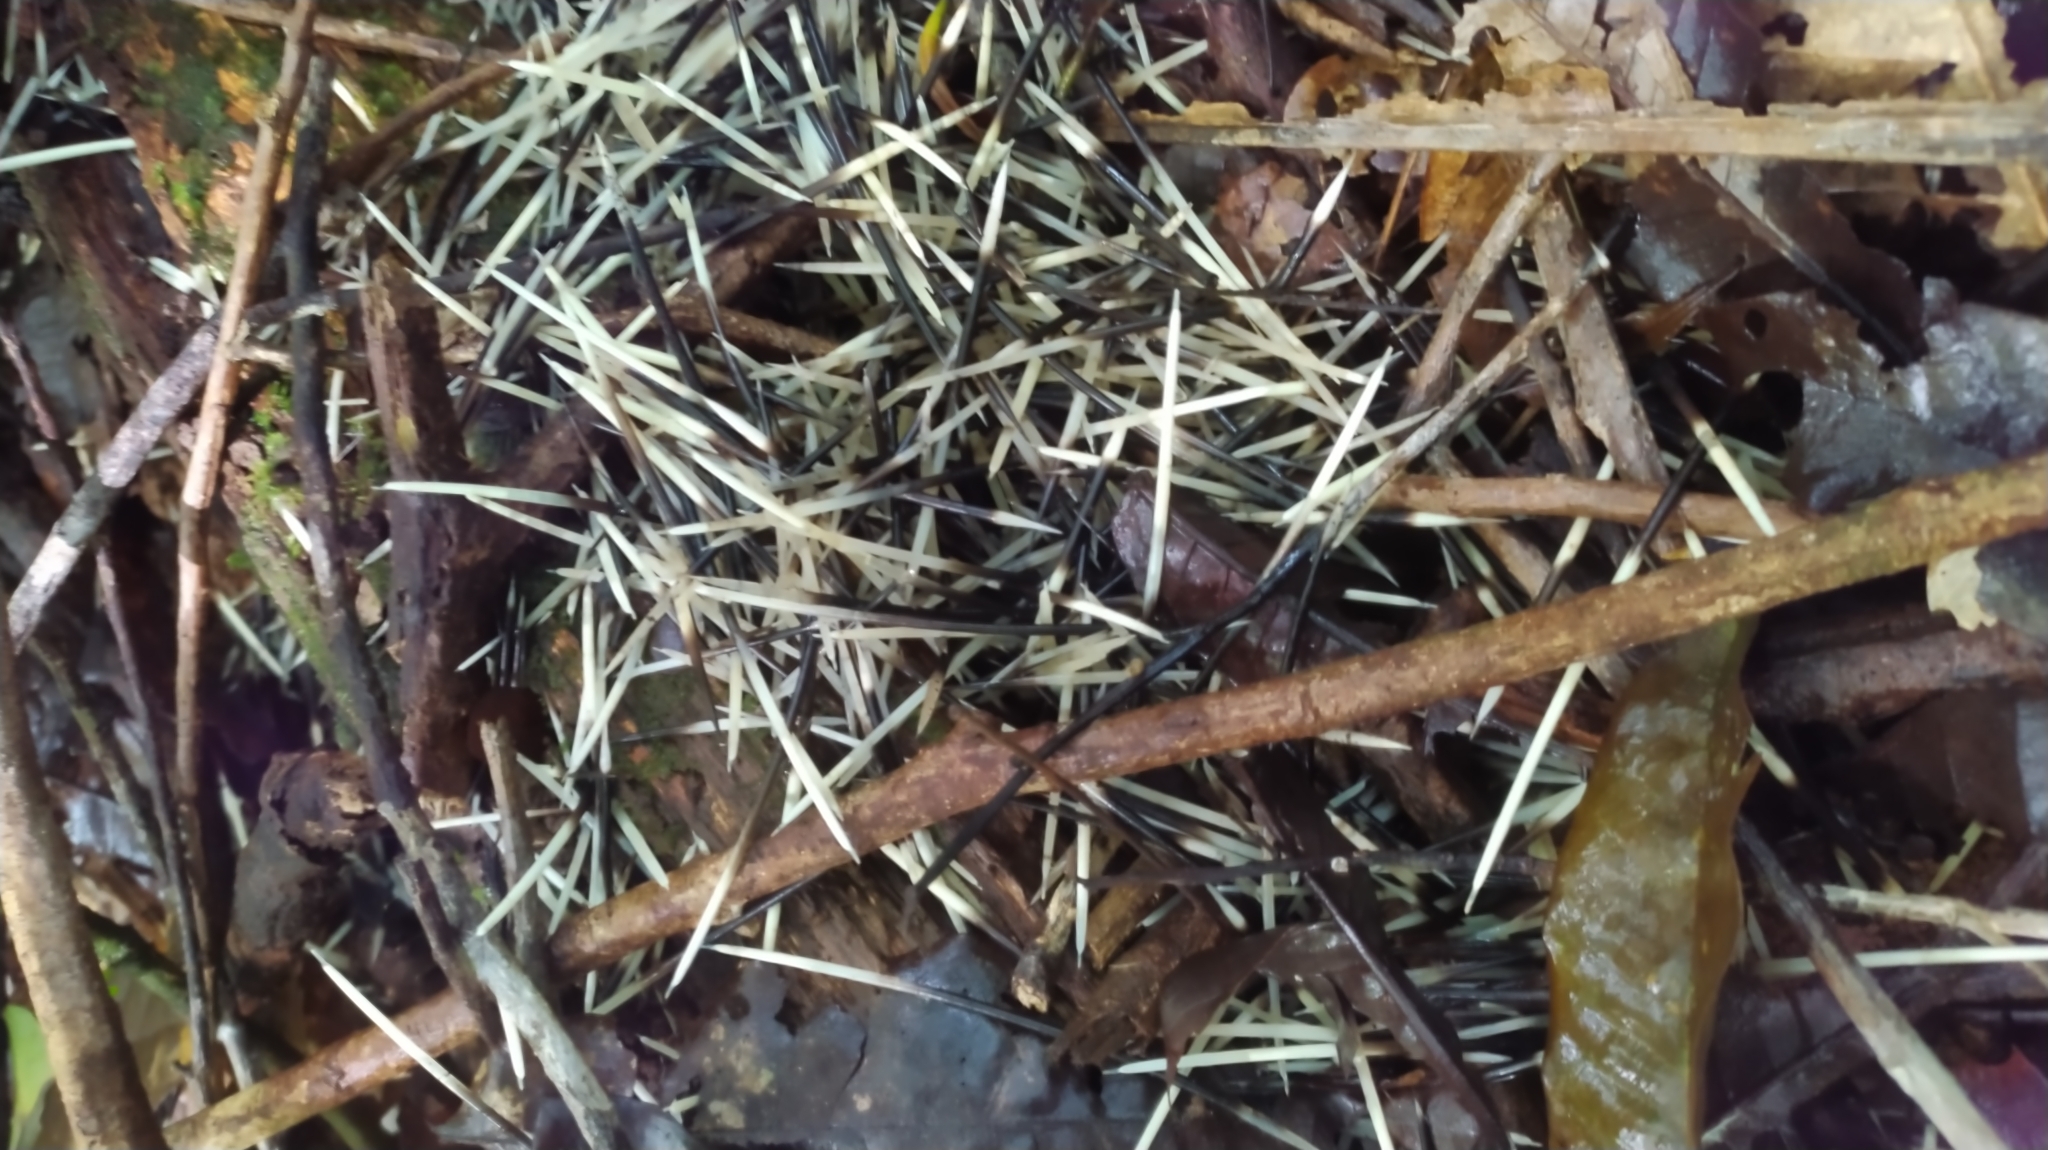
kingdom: Animalia
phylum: Chordata
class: Mammalia
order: Rodentia
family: Erethizontidae
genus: Coendou
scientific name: Coendou longicaudatus
